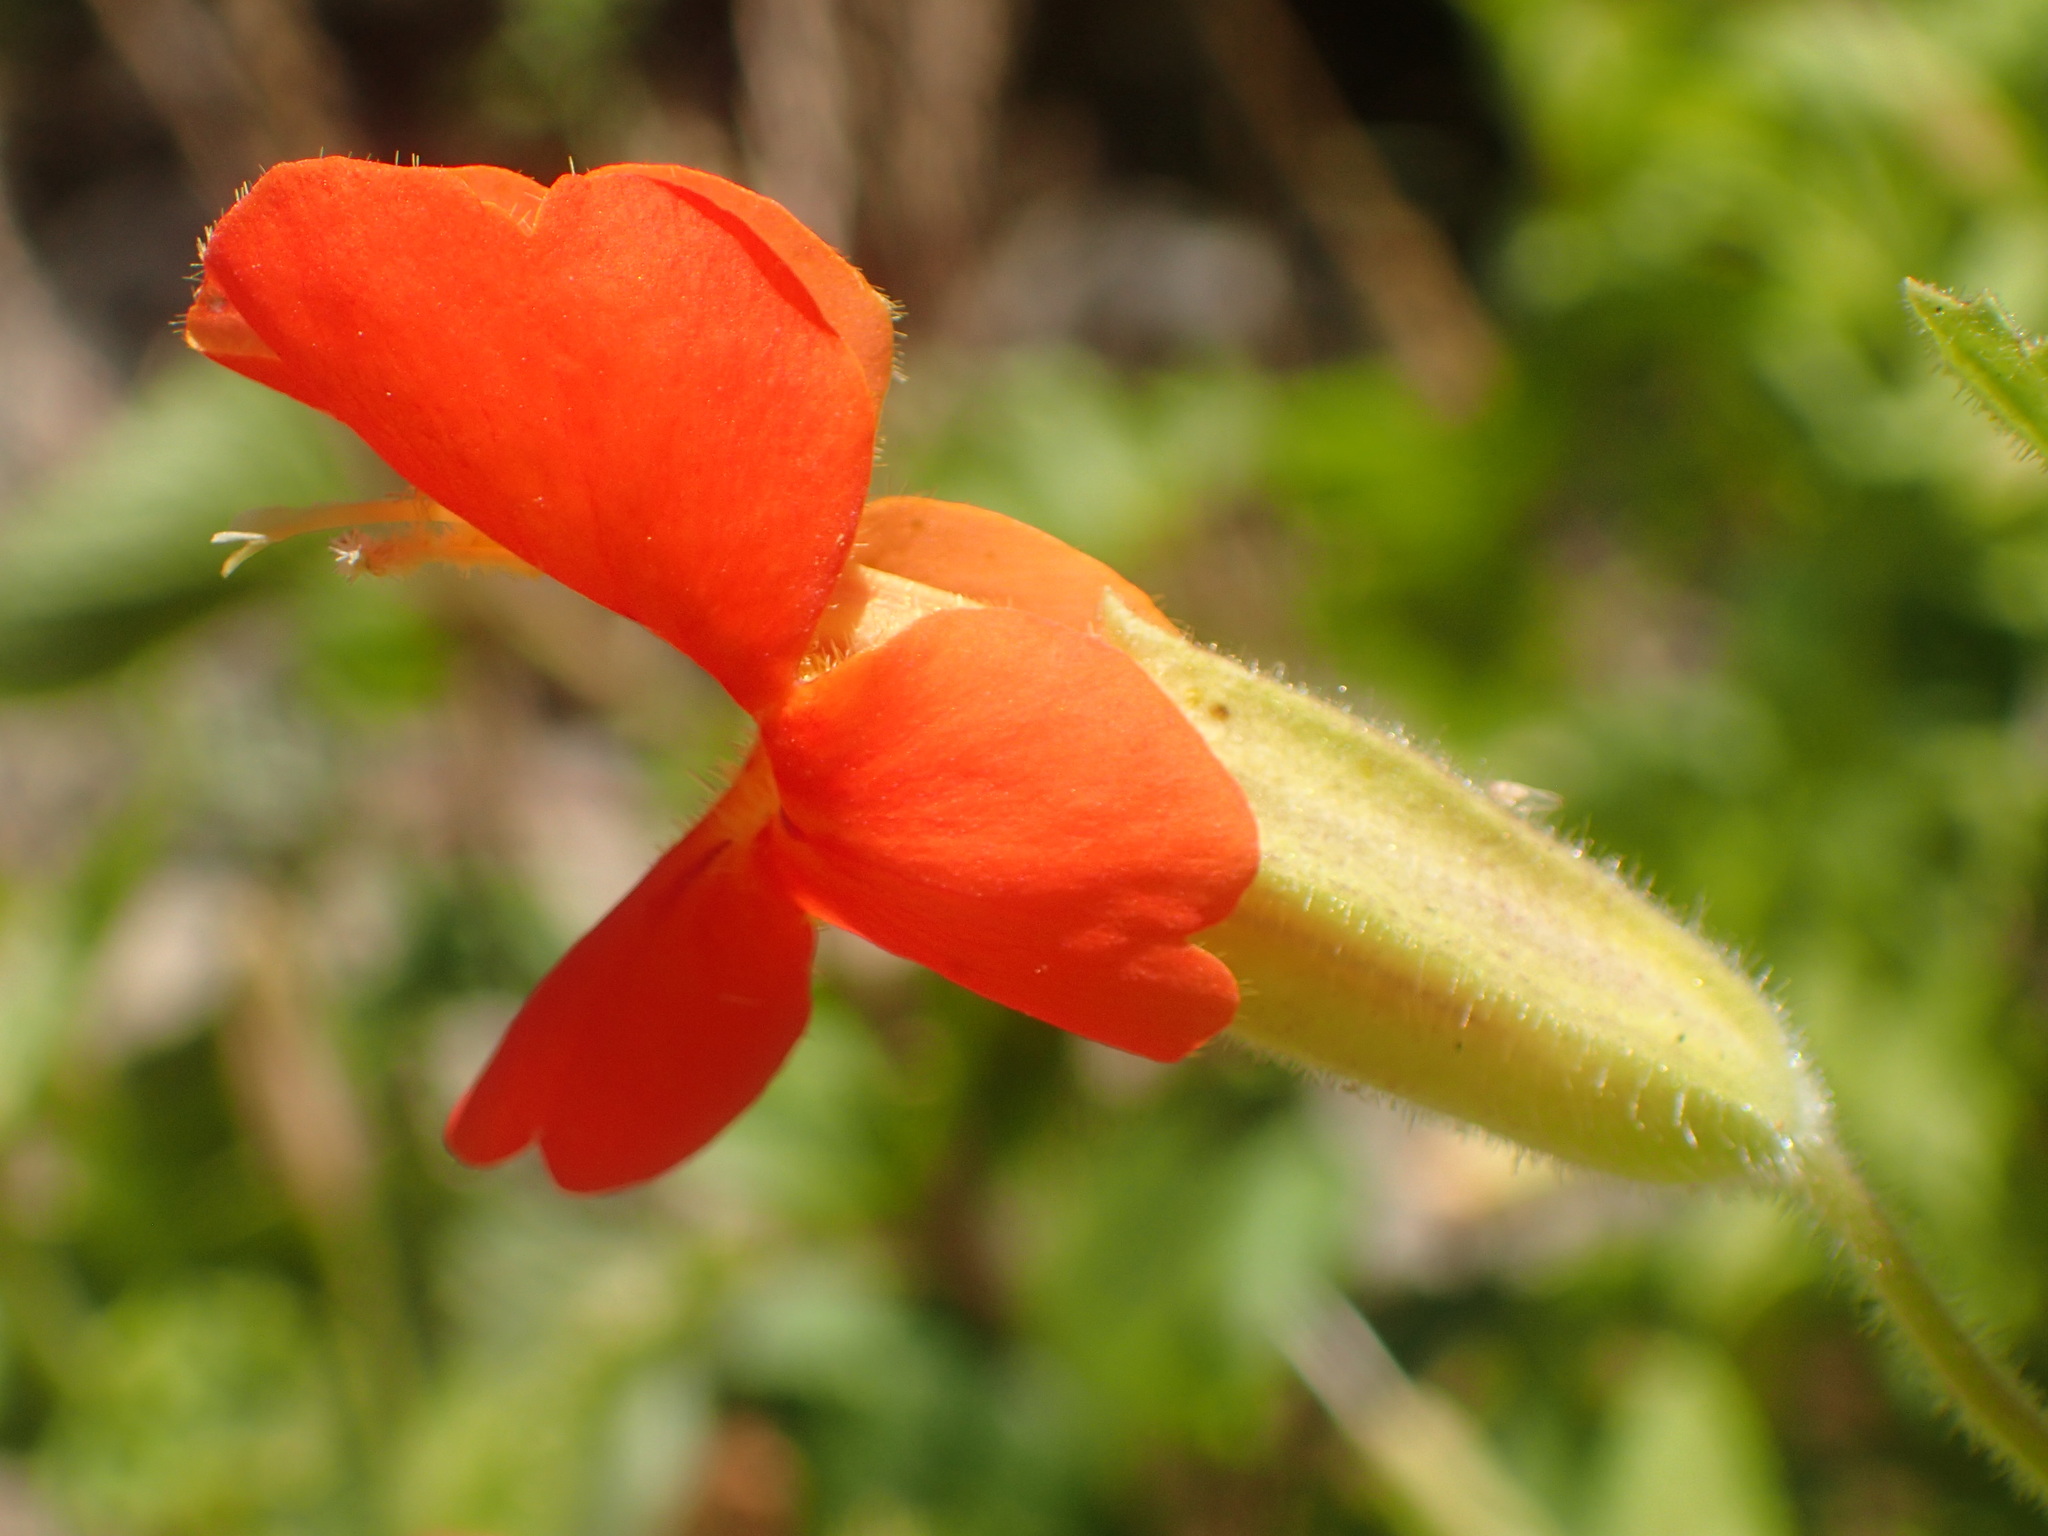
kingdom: Plantae
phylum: Tracheophyta
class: Magnoliopsida
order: Lamiales
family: Phrymaceae
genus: Erythranthe
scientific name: Erythranthe cardinalis
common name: Scarlet monkey-flower
